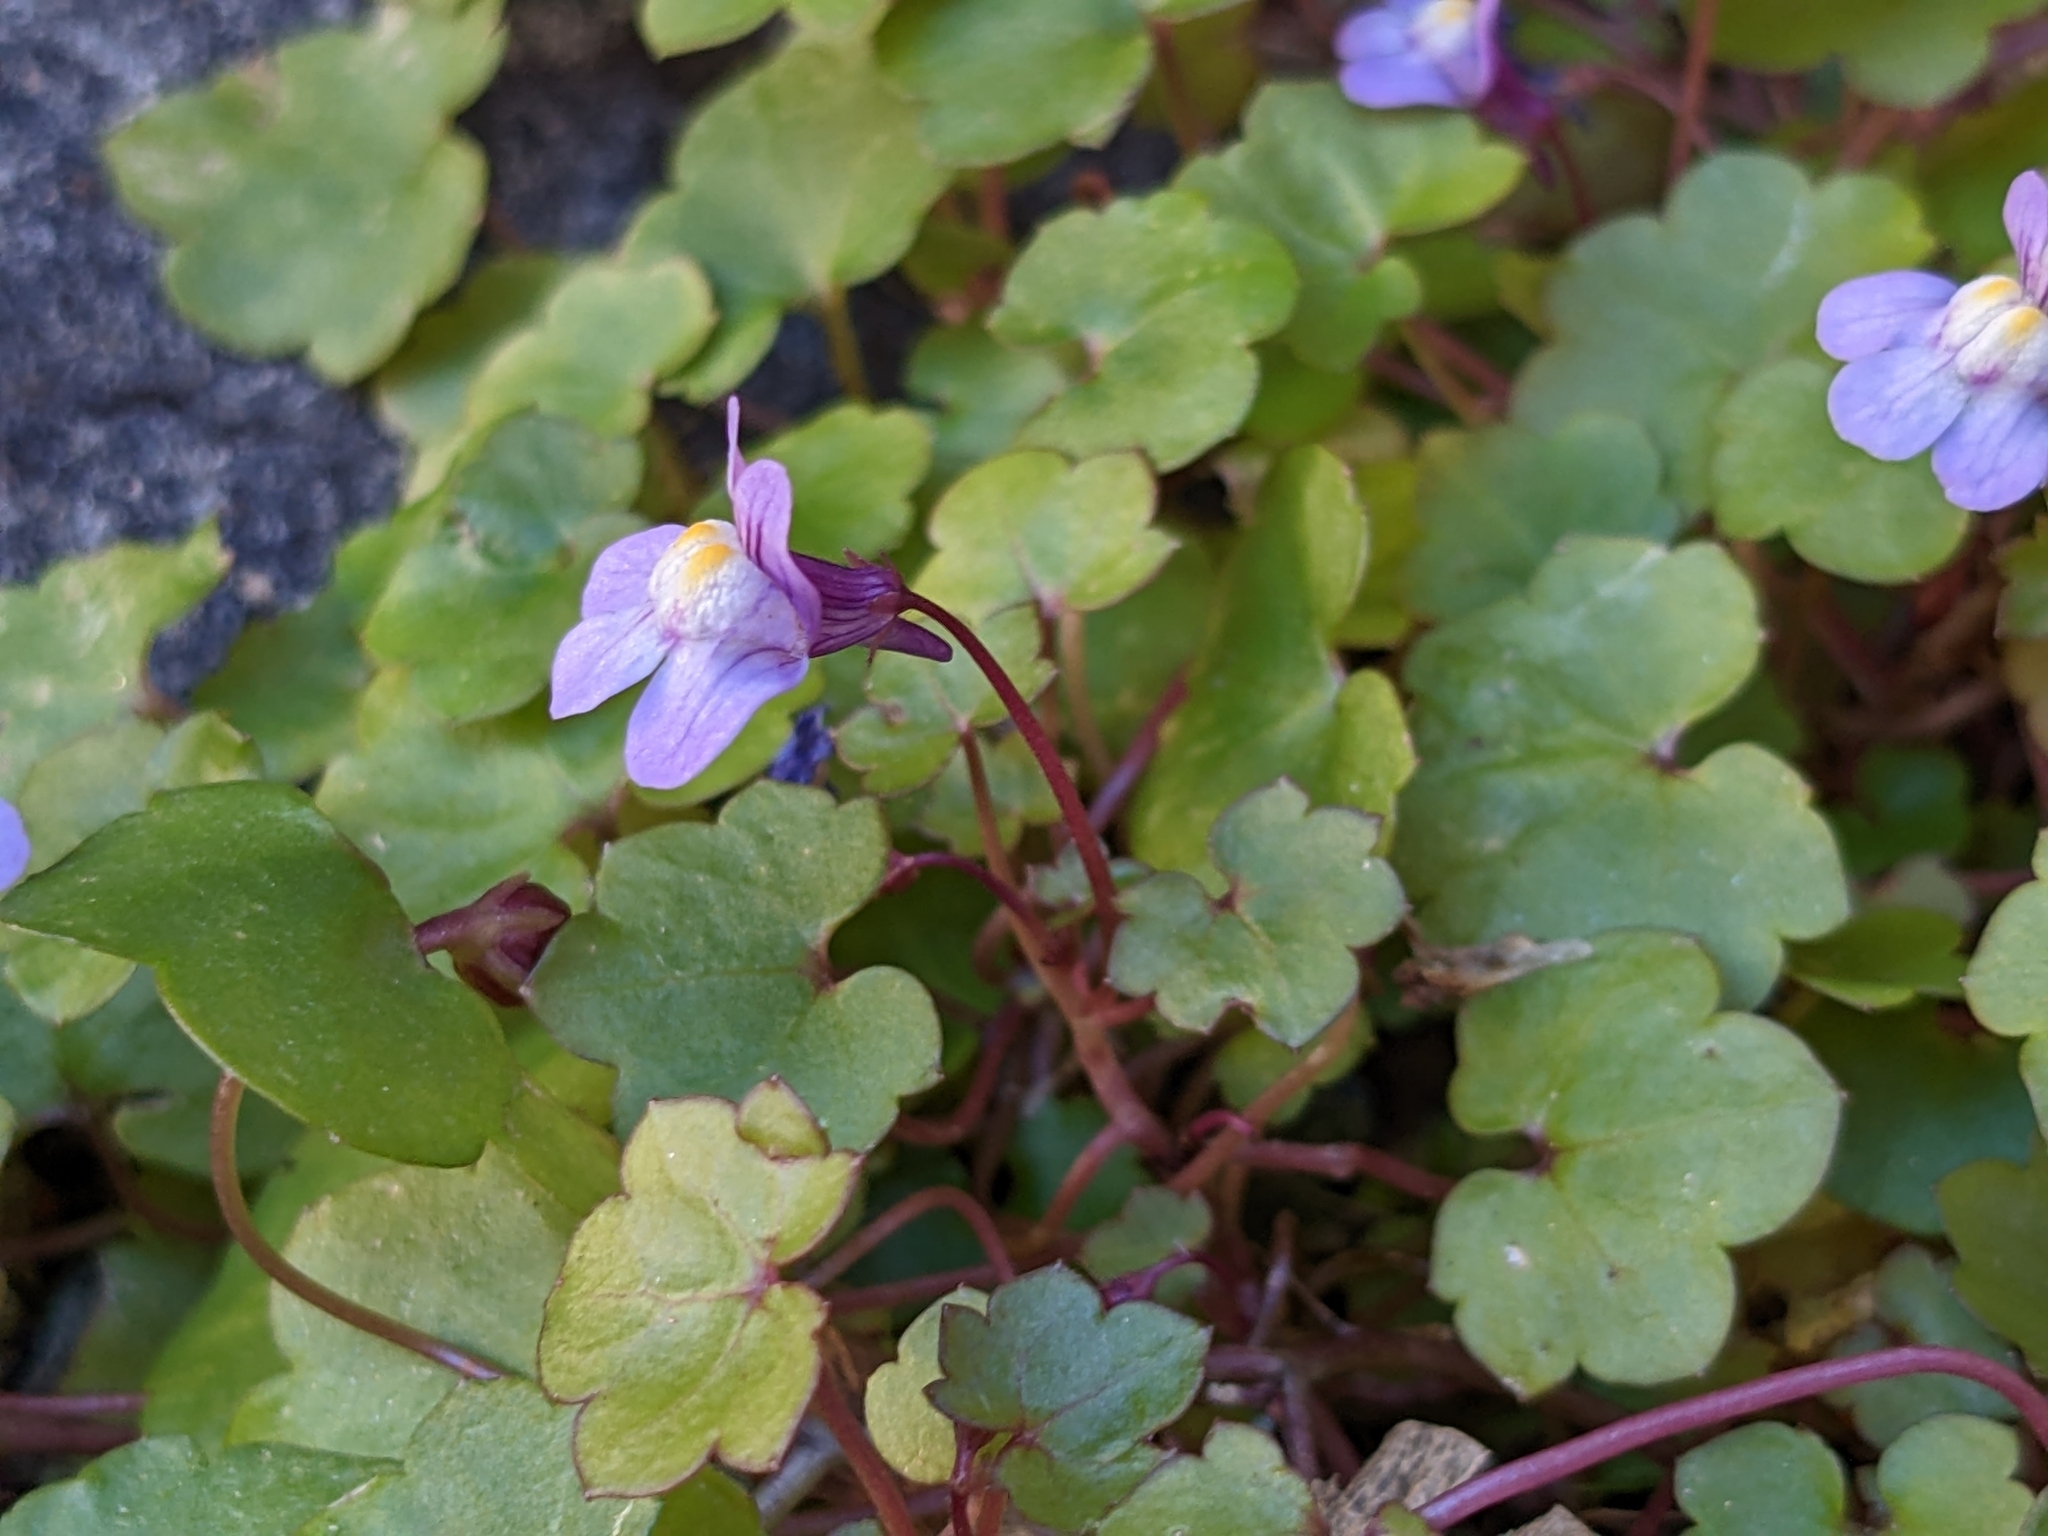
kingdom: Plantae
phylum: Tracheophyta
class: Magnoliopsida
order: Lamiales
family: Plantaginaceae
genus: Cymbalaria
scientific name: Cymbalaria muralis
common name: Ivy-leaved toadflax
